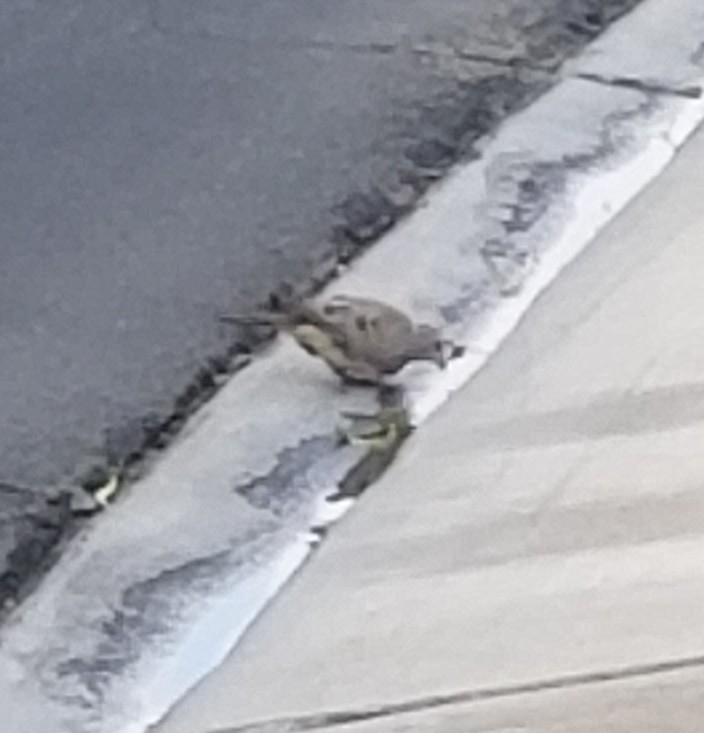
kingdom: Animalia
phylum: Chordata
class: Aves
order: Columbiformes
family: Columbidae
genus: Zenaida
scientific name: Zenaida macroura
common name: Mourning dove
